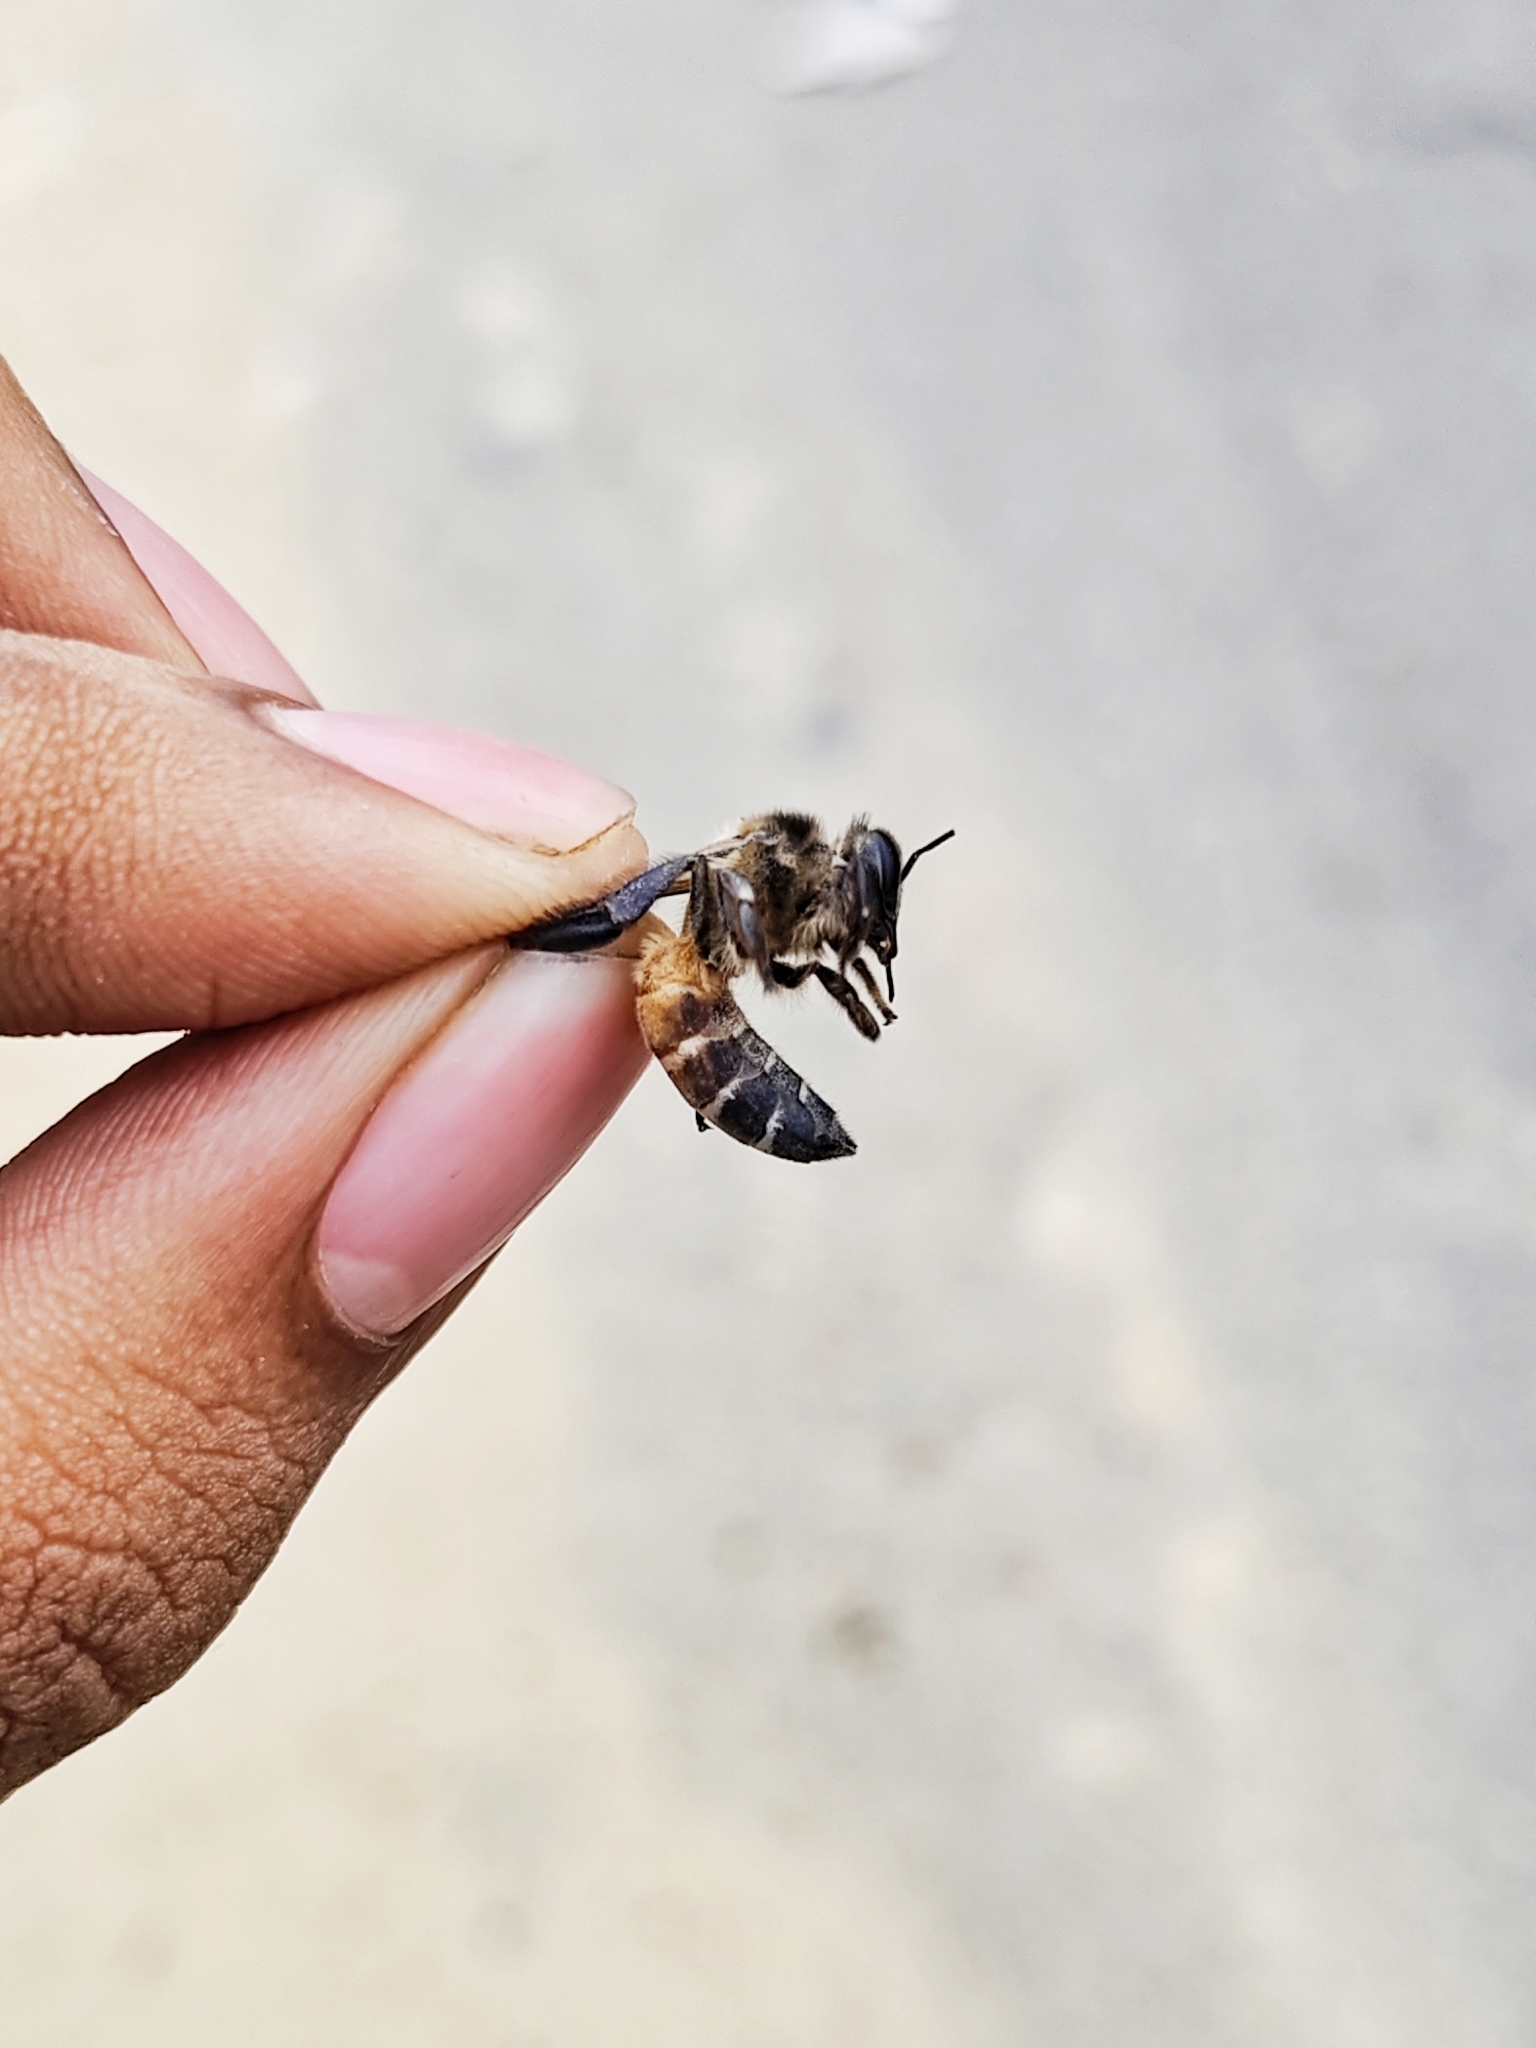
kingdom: Animalia
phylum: Arthropoda
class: Insecta
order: Hymenoptera
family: Apidae
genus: Apis
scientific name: Apis dorsata
